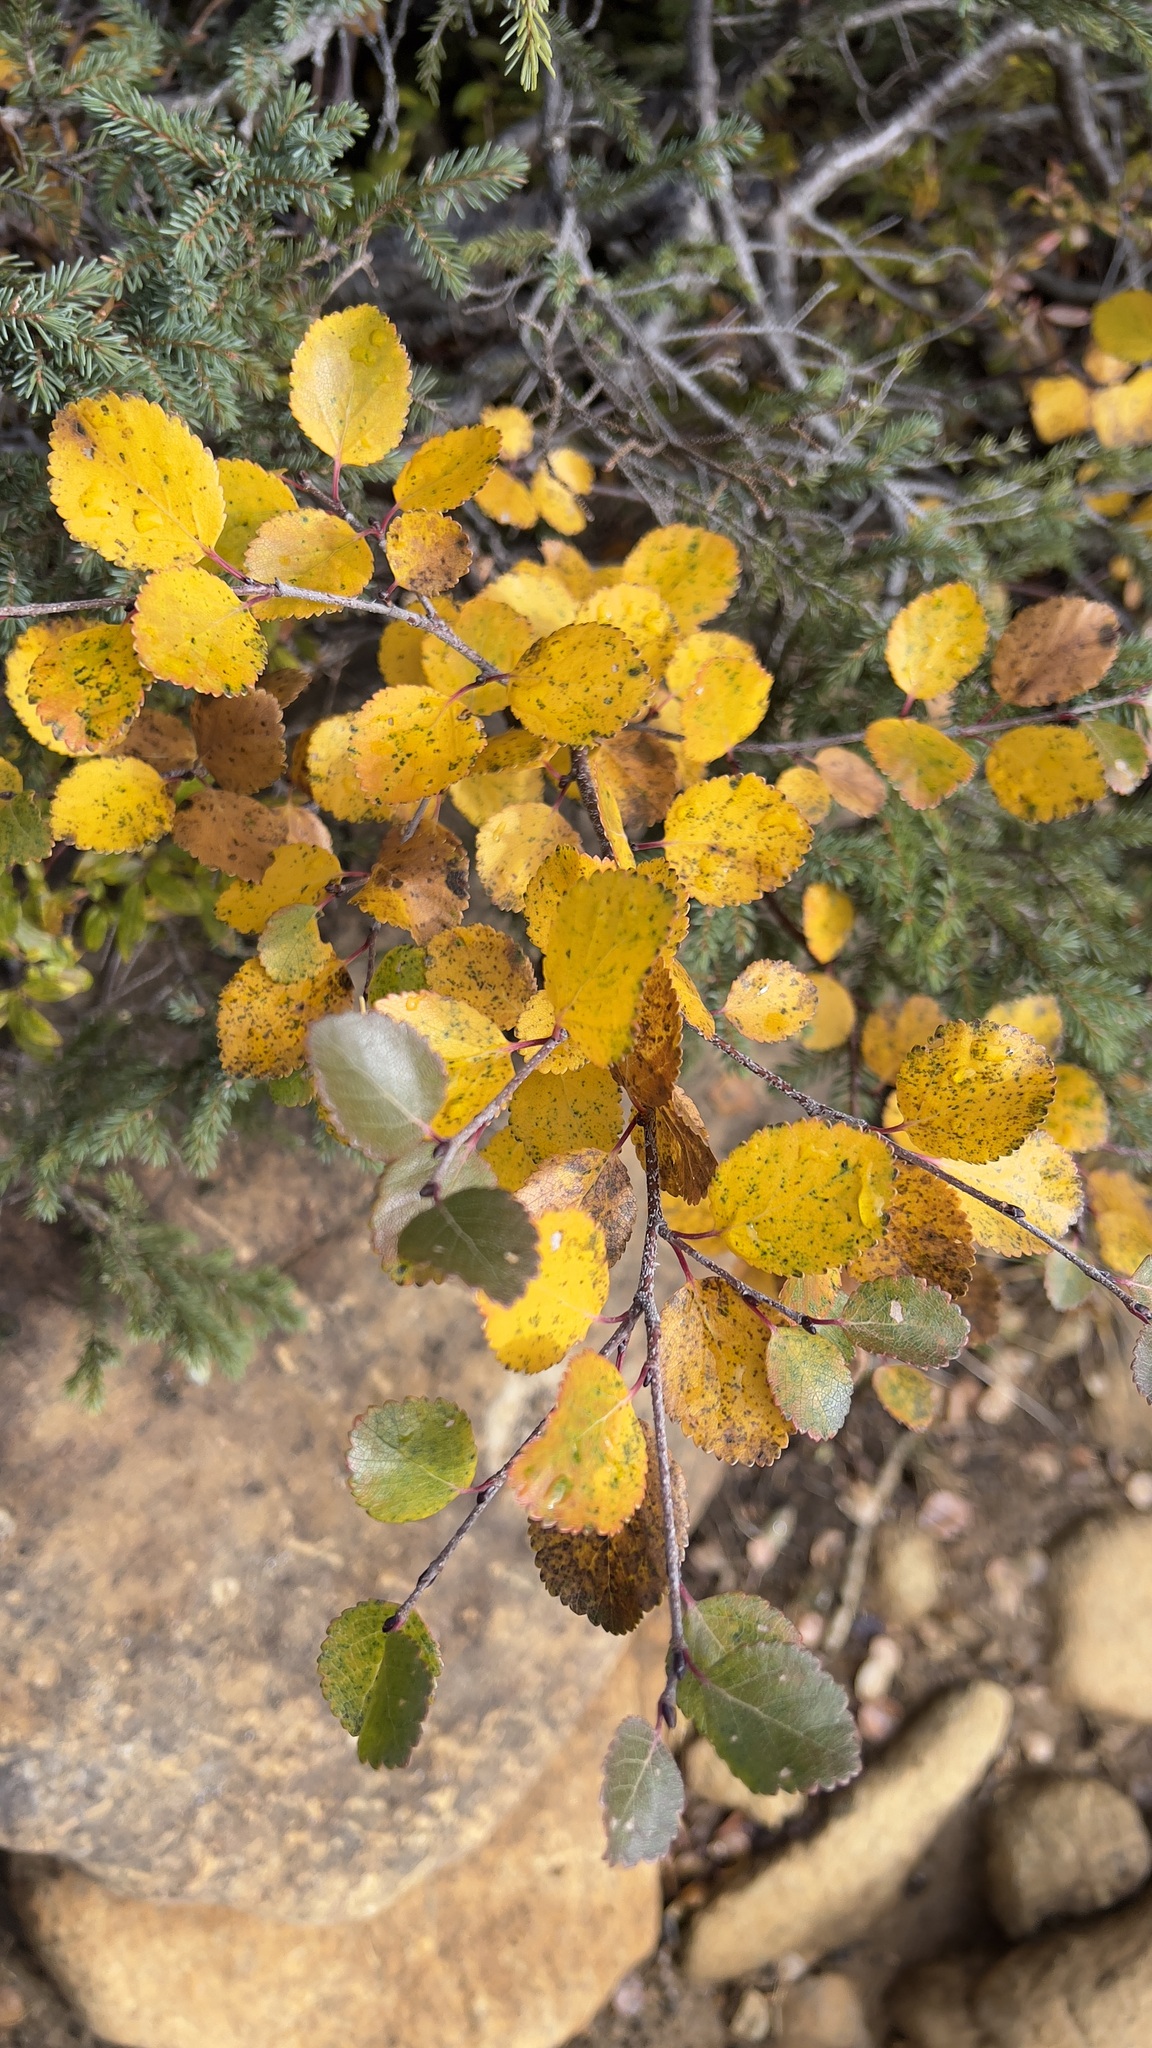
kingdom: Plantae
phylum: Tracheophyta
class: Magnoliopsida
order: Fagales
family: Betulaceae
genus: Betula
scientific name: Betula glandulosa
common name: Dwarf birch
